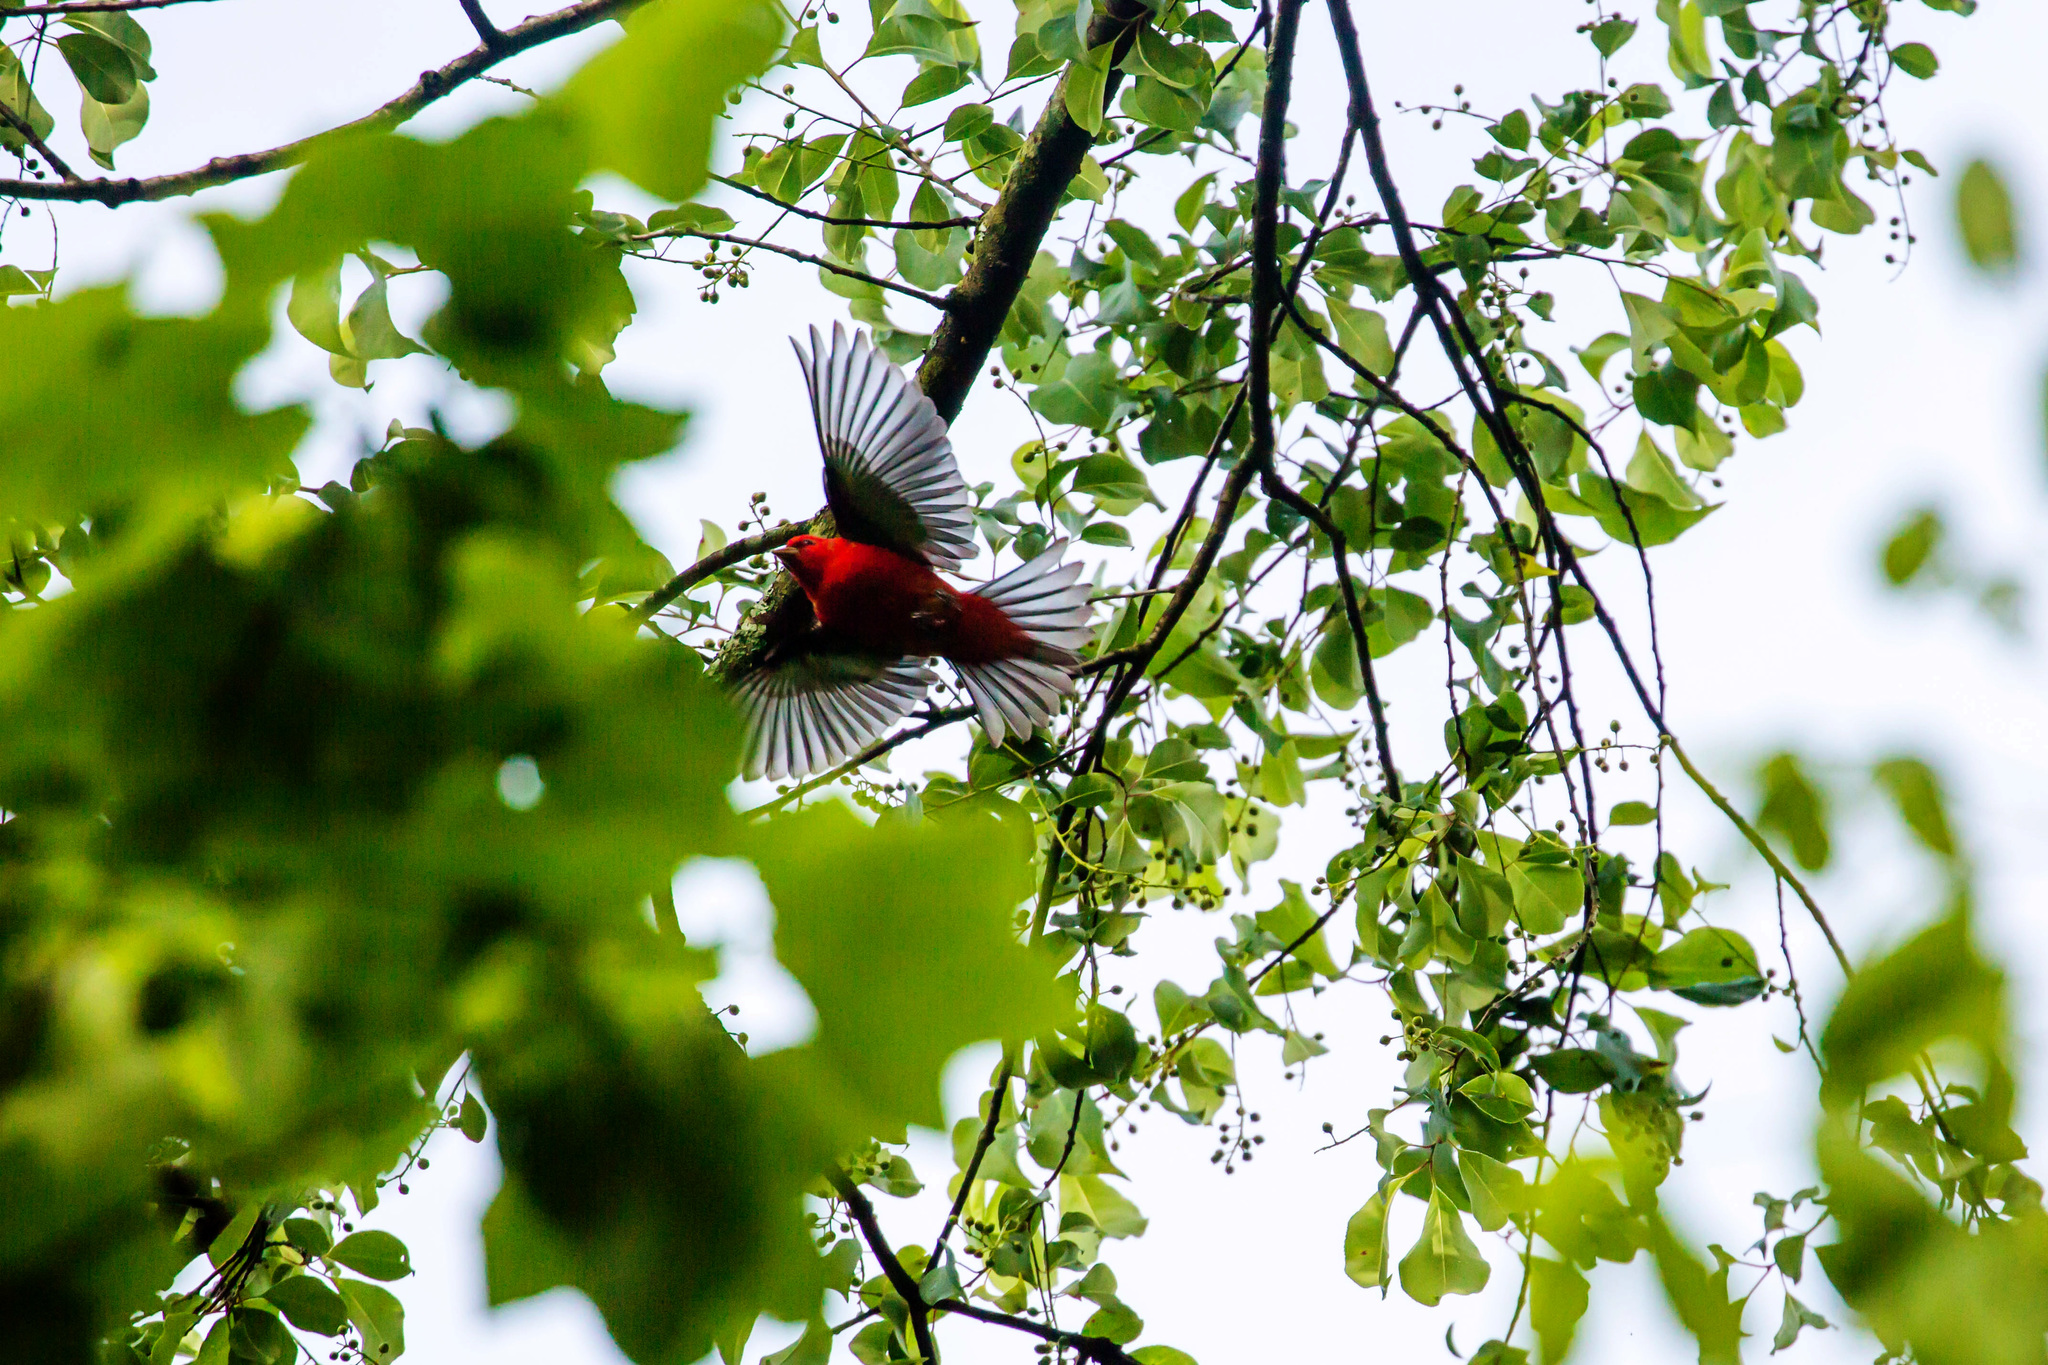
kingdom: Animalia
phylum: Chordata
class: Aves
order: Passeriformes
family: Cardinalidae
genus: Piranga
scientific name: Piranga olivacea
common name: Scarlet tanager
